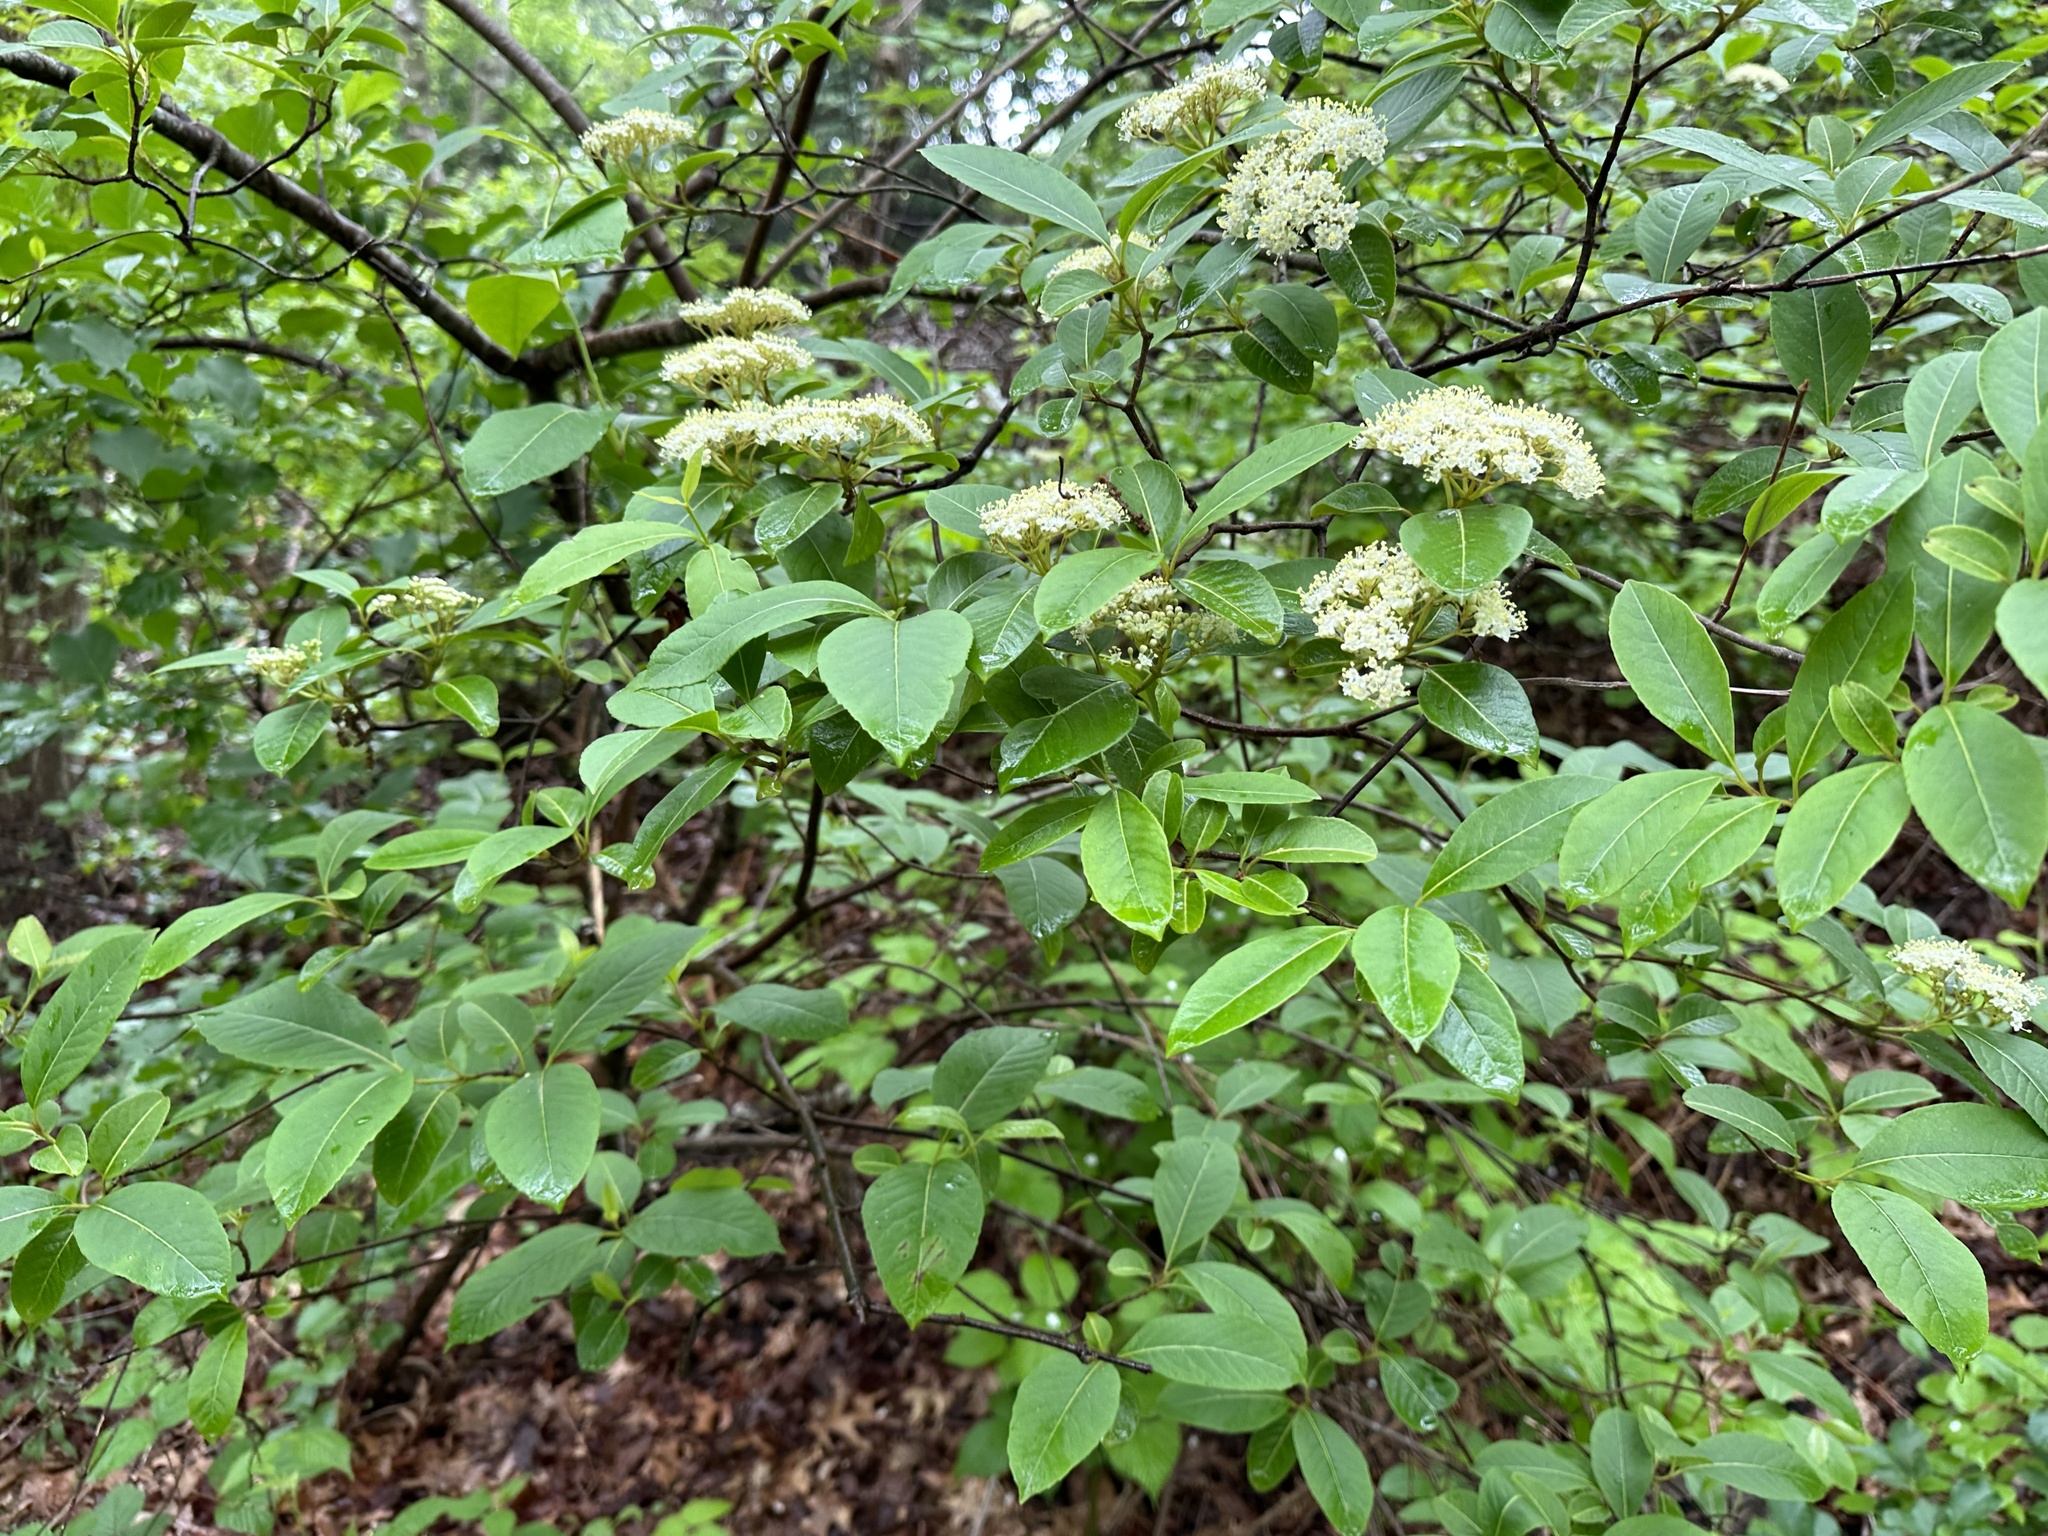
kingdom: Plantae
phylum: Tracheophyta
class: Magnoliopsida
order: Dipsacales
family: Viburnaceae
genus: Viburnum
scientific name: Viburnum cassinoides
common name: Swamp haw
